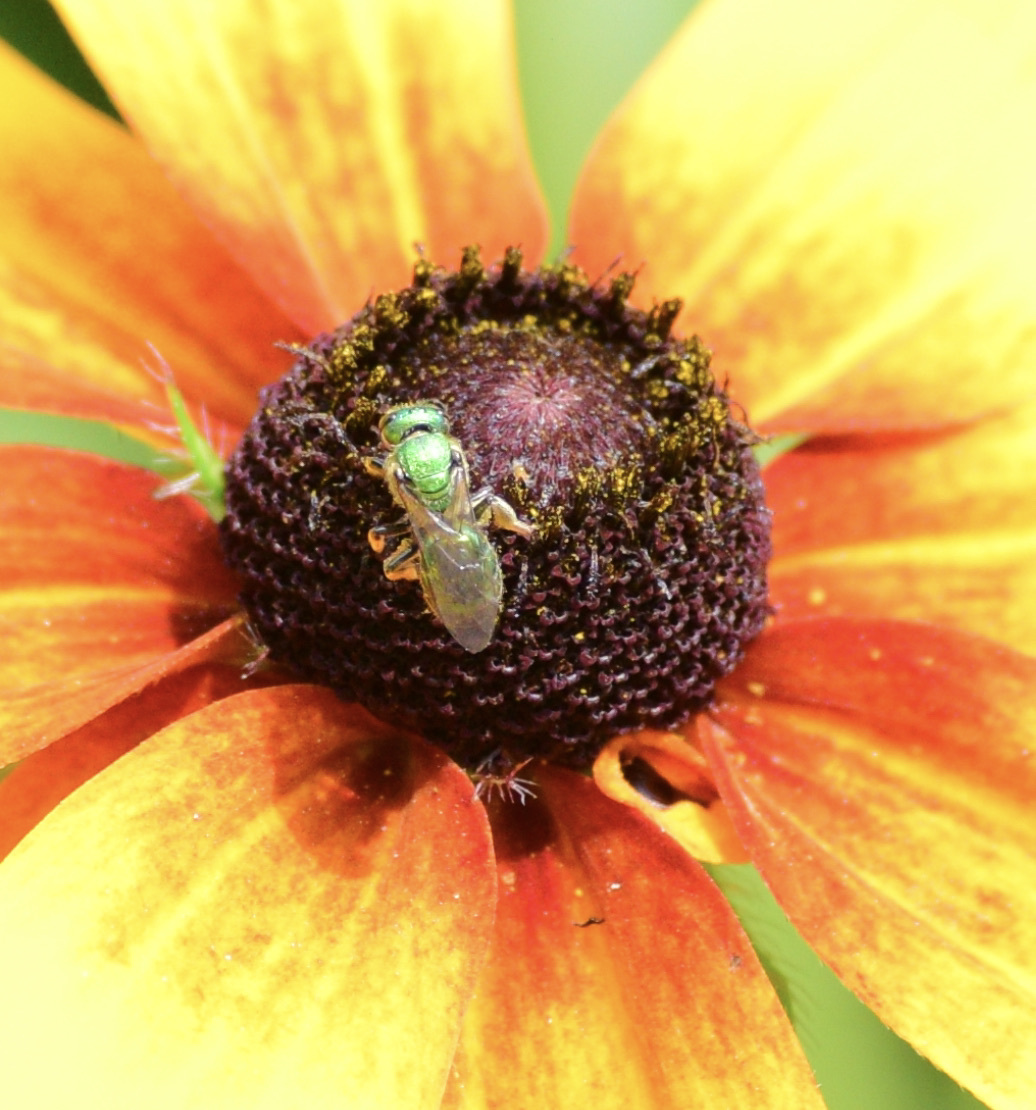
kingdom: Animalia
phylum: Arthropoda
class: Insecta
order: Hymenoptera
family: Halictidae
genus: Augochlora
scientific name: Augochlora pura
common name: Pure green sweat bee
